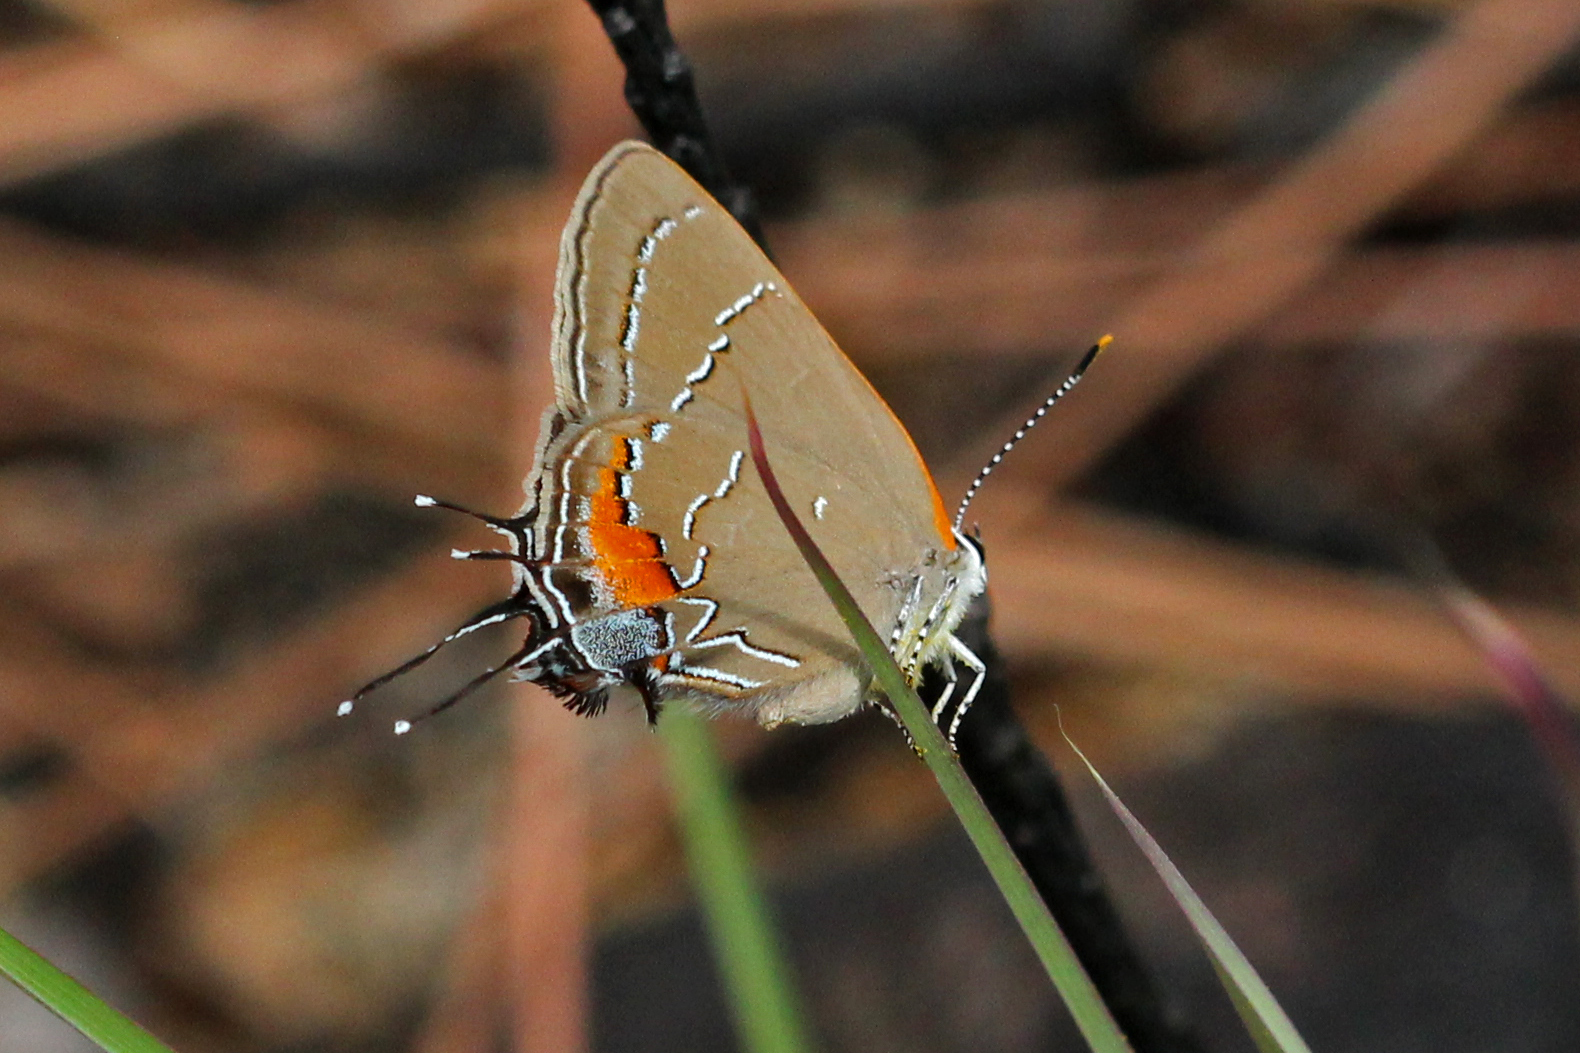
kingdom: Animalia
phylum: Arthropoda
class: Insecta
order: Lepidoptera
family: Lycaenidae
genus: Fixsenia
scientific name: Fixsenia favonius
